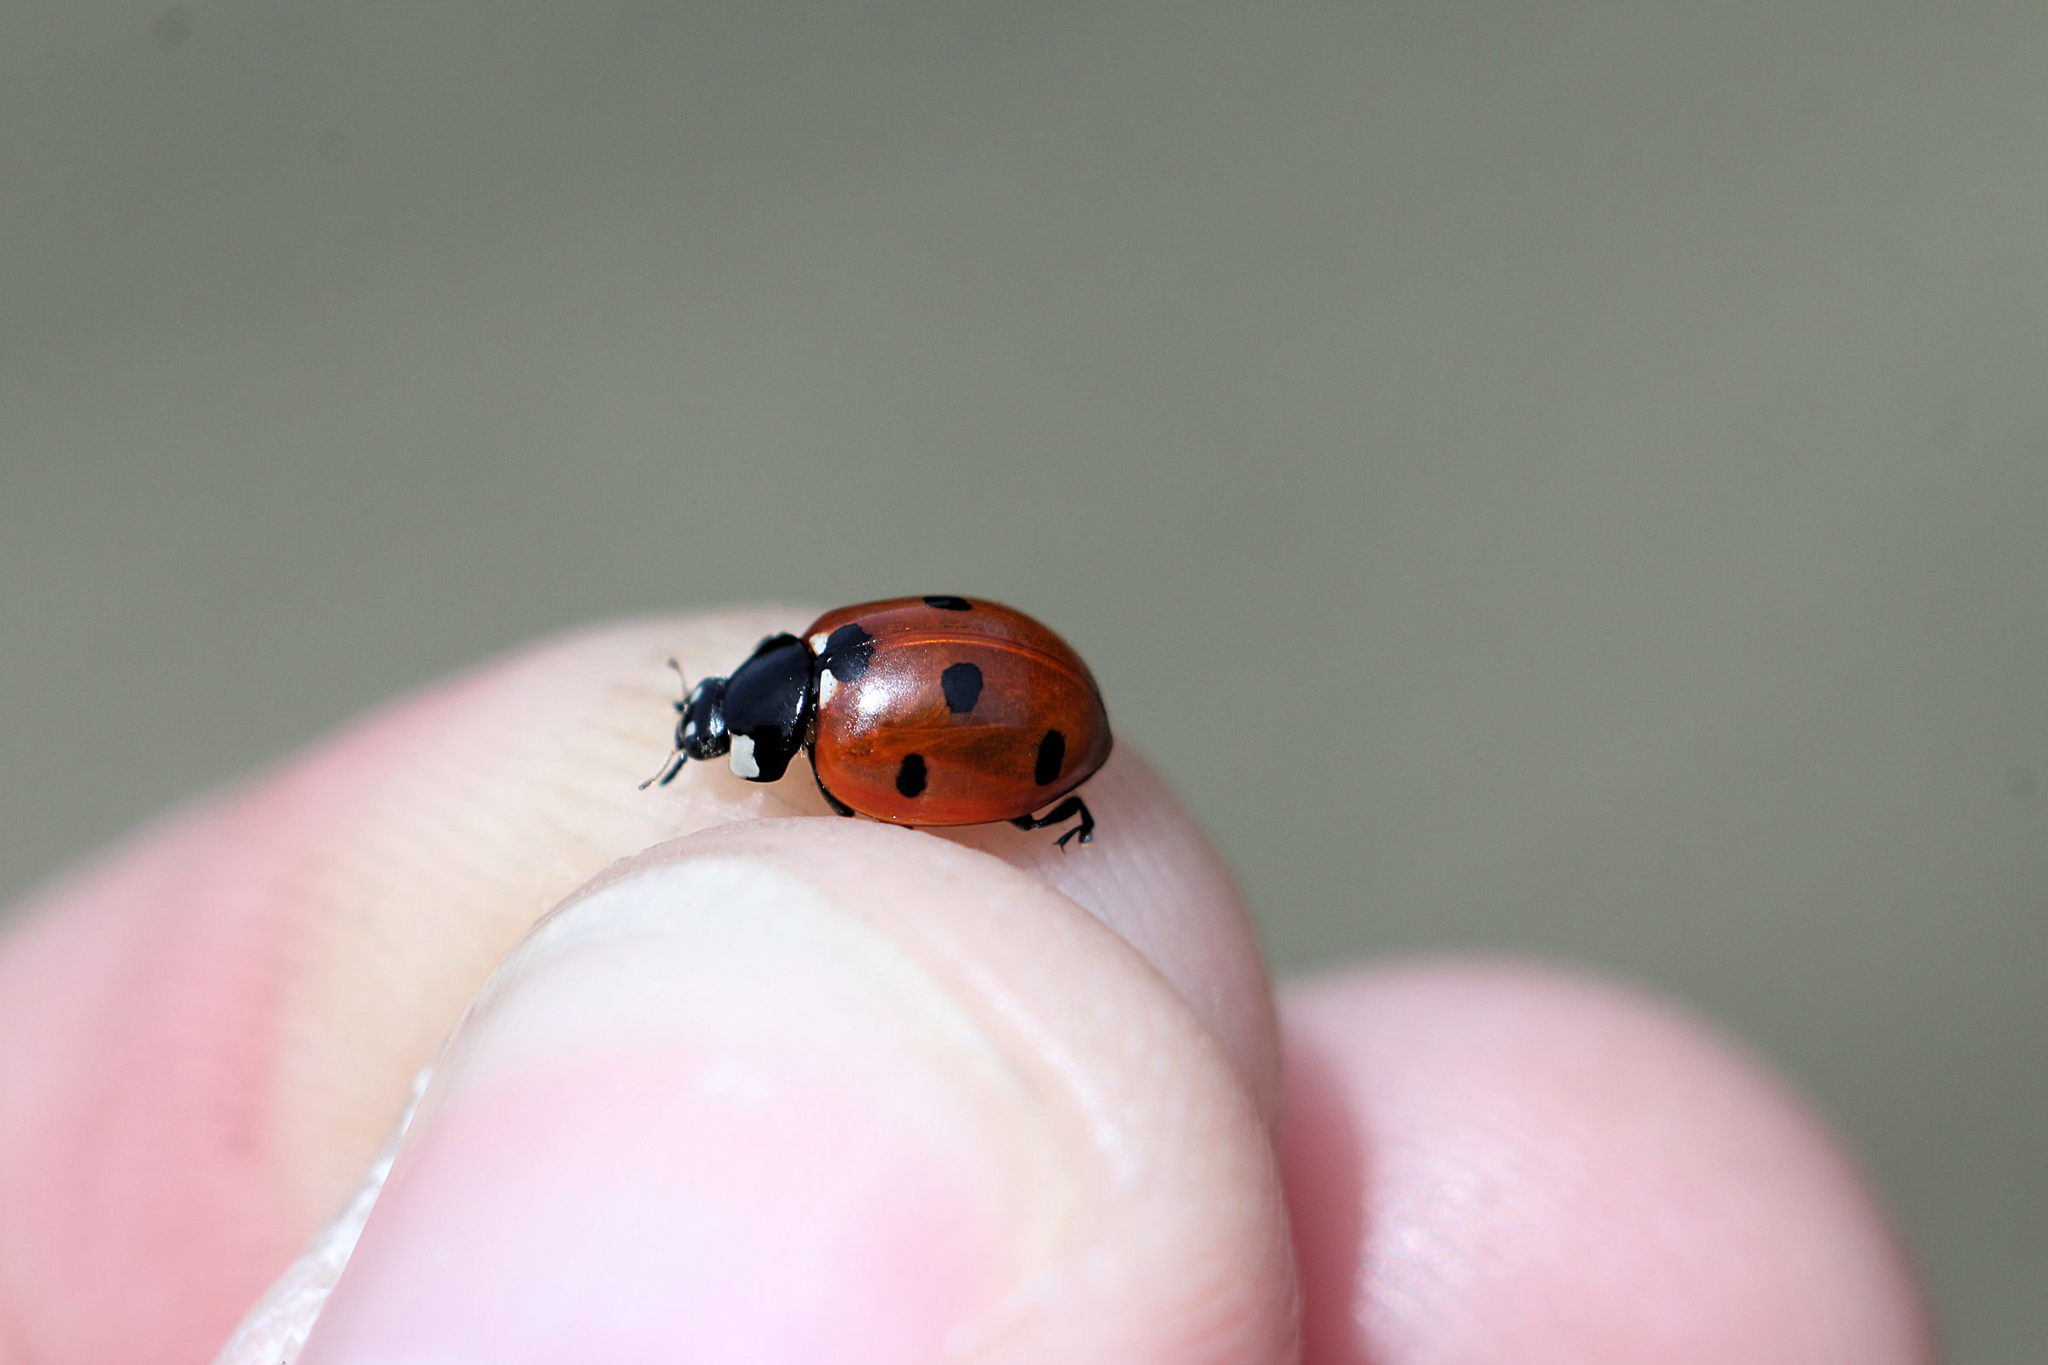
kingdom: Animalia
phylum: Arthropoda
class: Insecta
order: Coleoptera
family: Coccinellidae
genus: Coccinella
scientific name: Coccinella septempunctata
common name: Sevenspotted lady beetle
